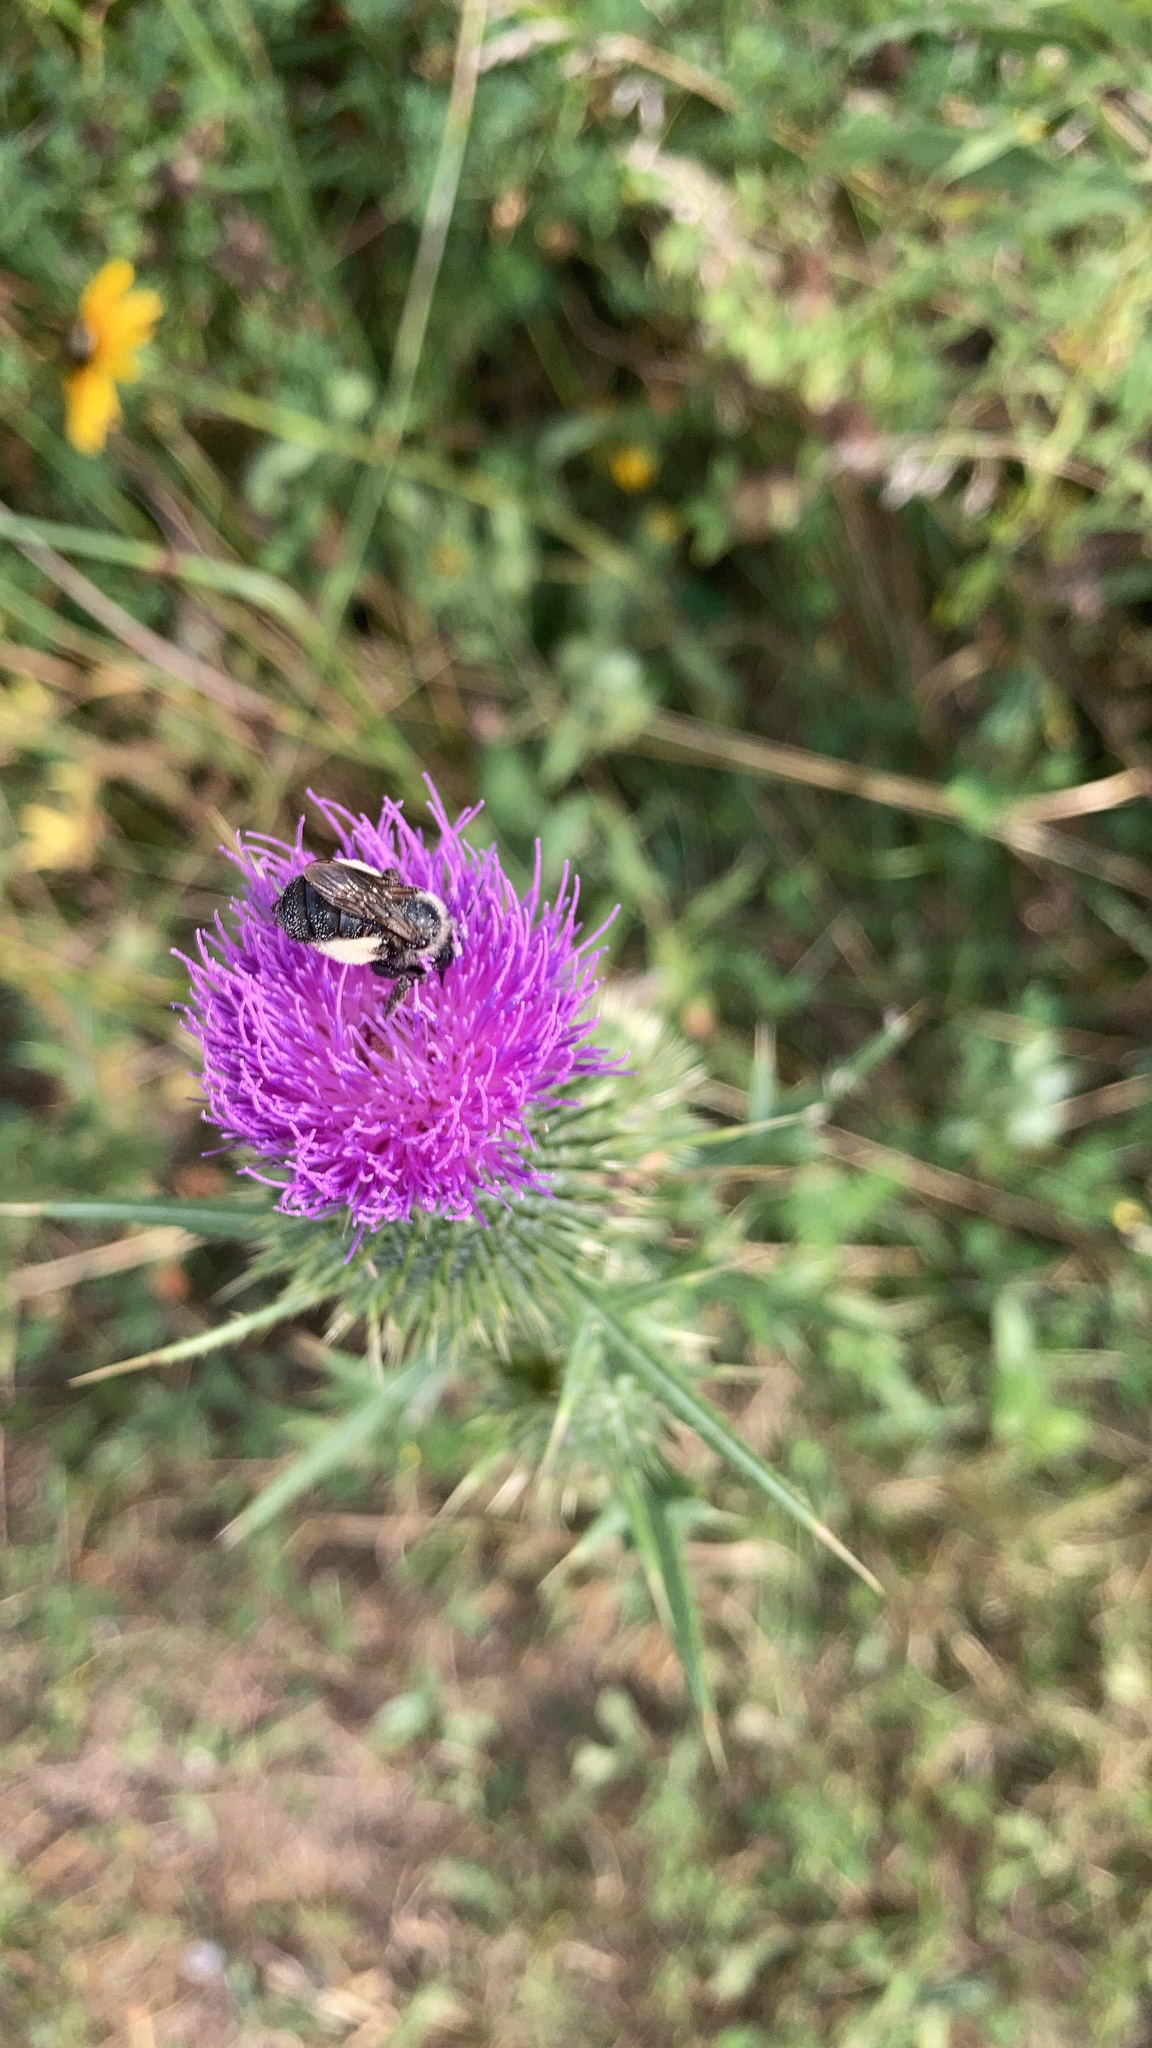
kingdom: Animalia
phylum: Arthropoda
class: Insecta
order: Hymenoptera
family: Apidae
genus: Melissodes
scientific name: Melissodes desponsus
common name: Thistle long-horned bee
